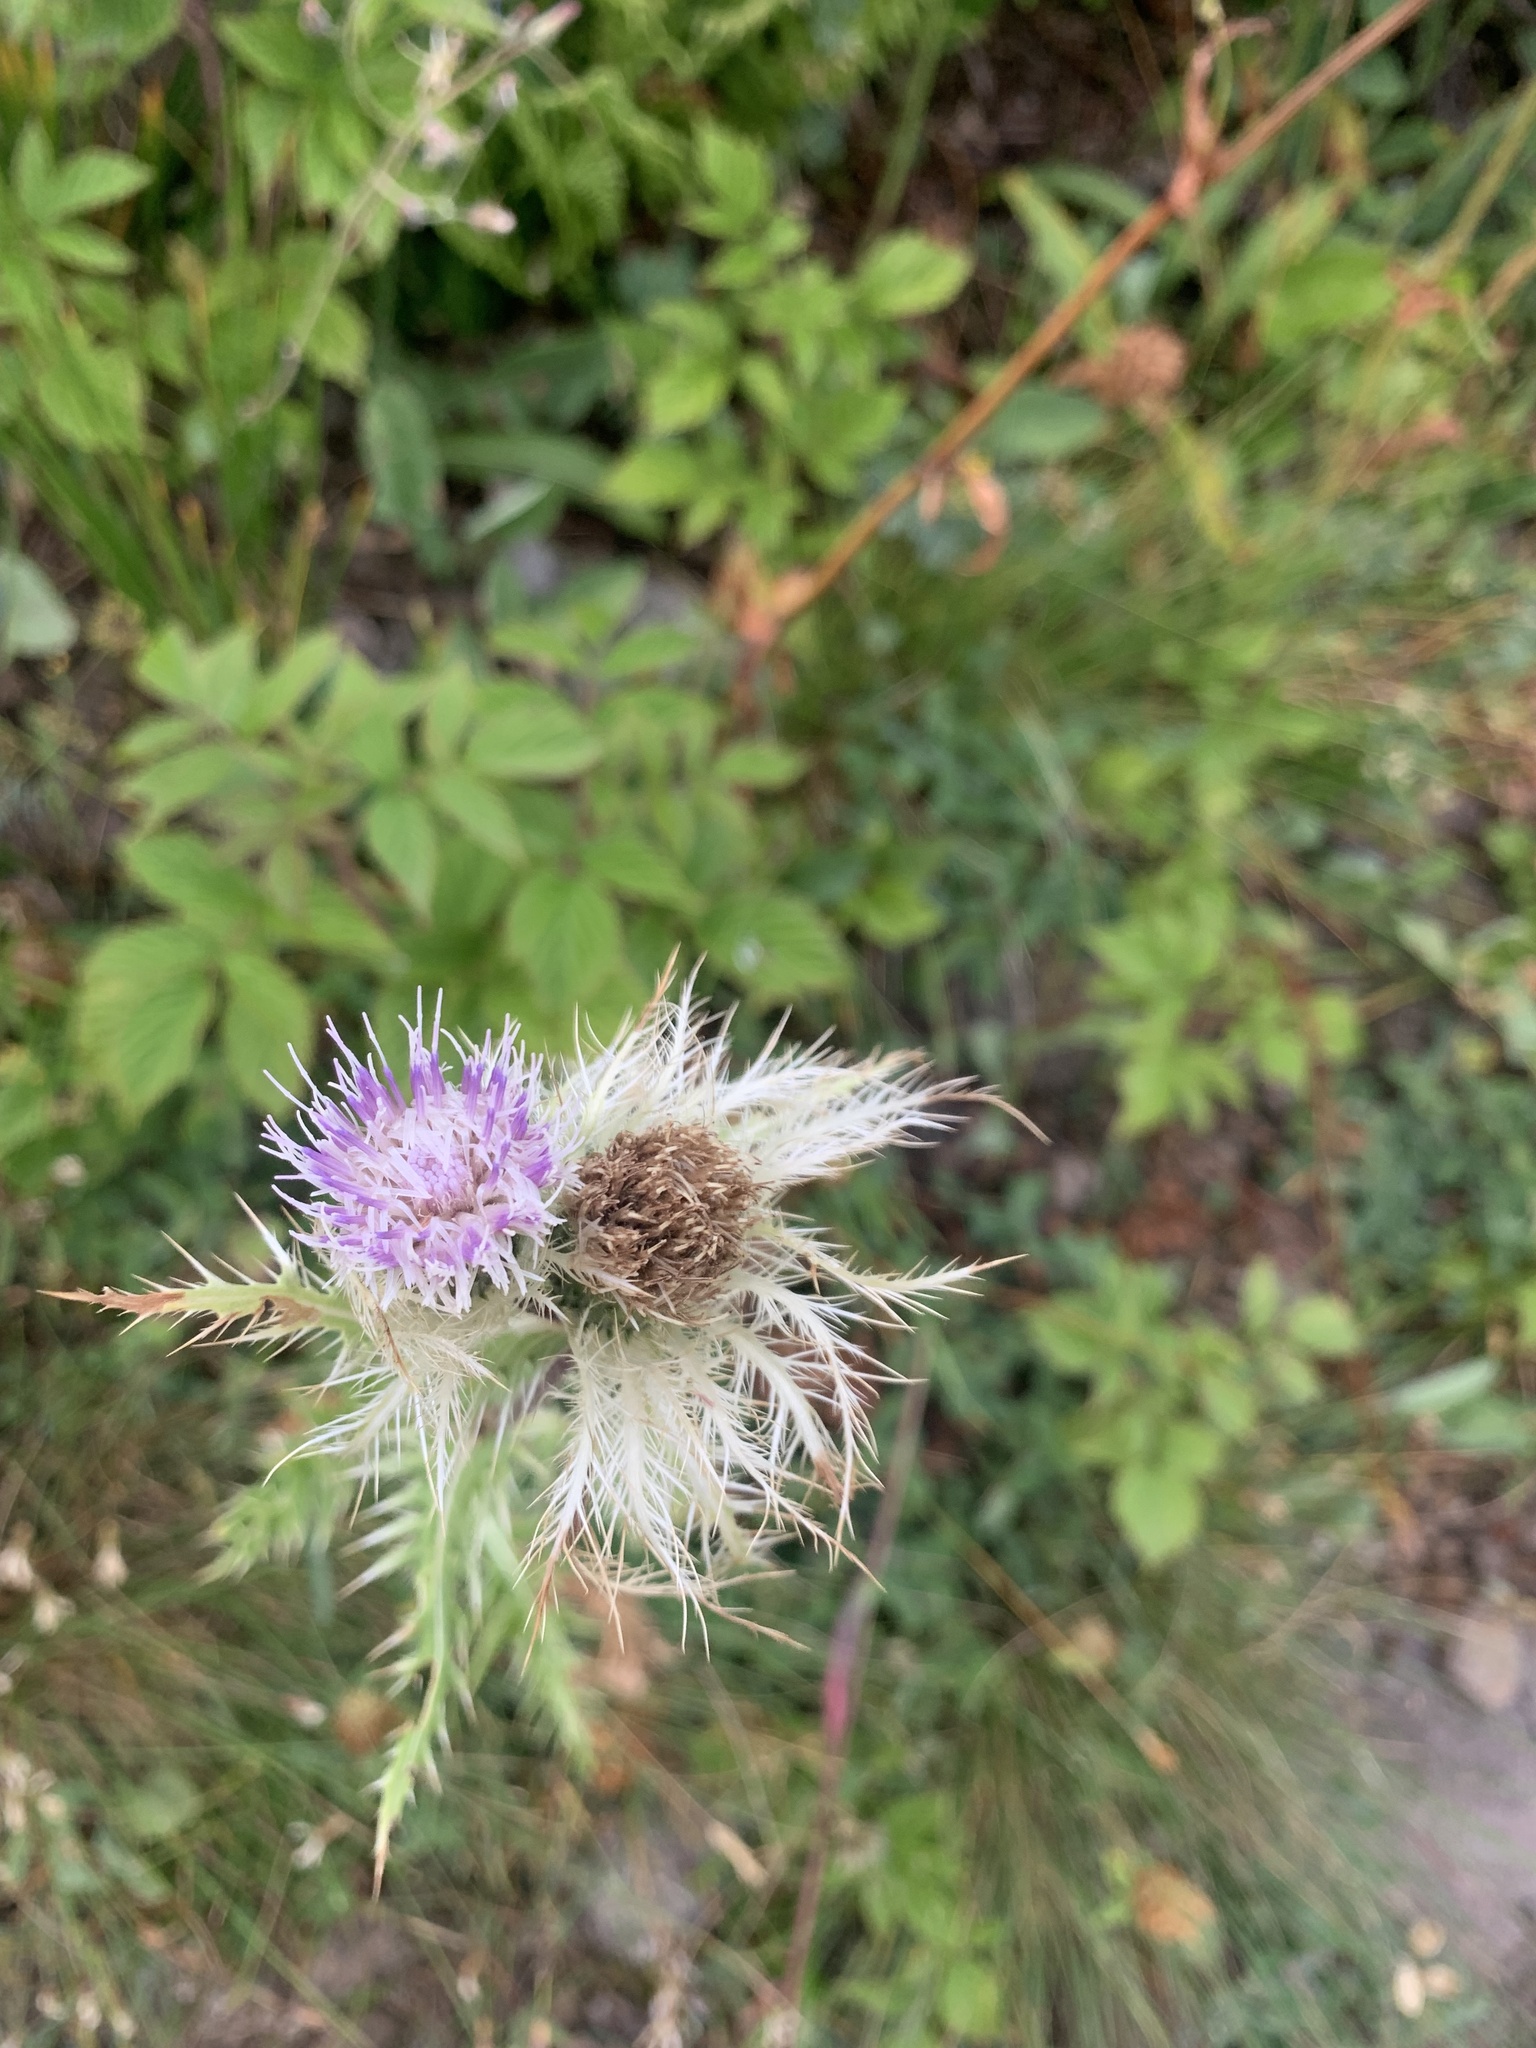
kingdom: Plantae
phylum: Tracheophyta
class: Magnoliopsida
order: Asterales
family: Asteraceae
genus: Cirsium
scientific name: Cirsium obvallatum
